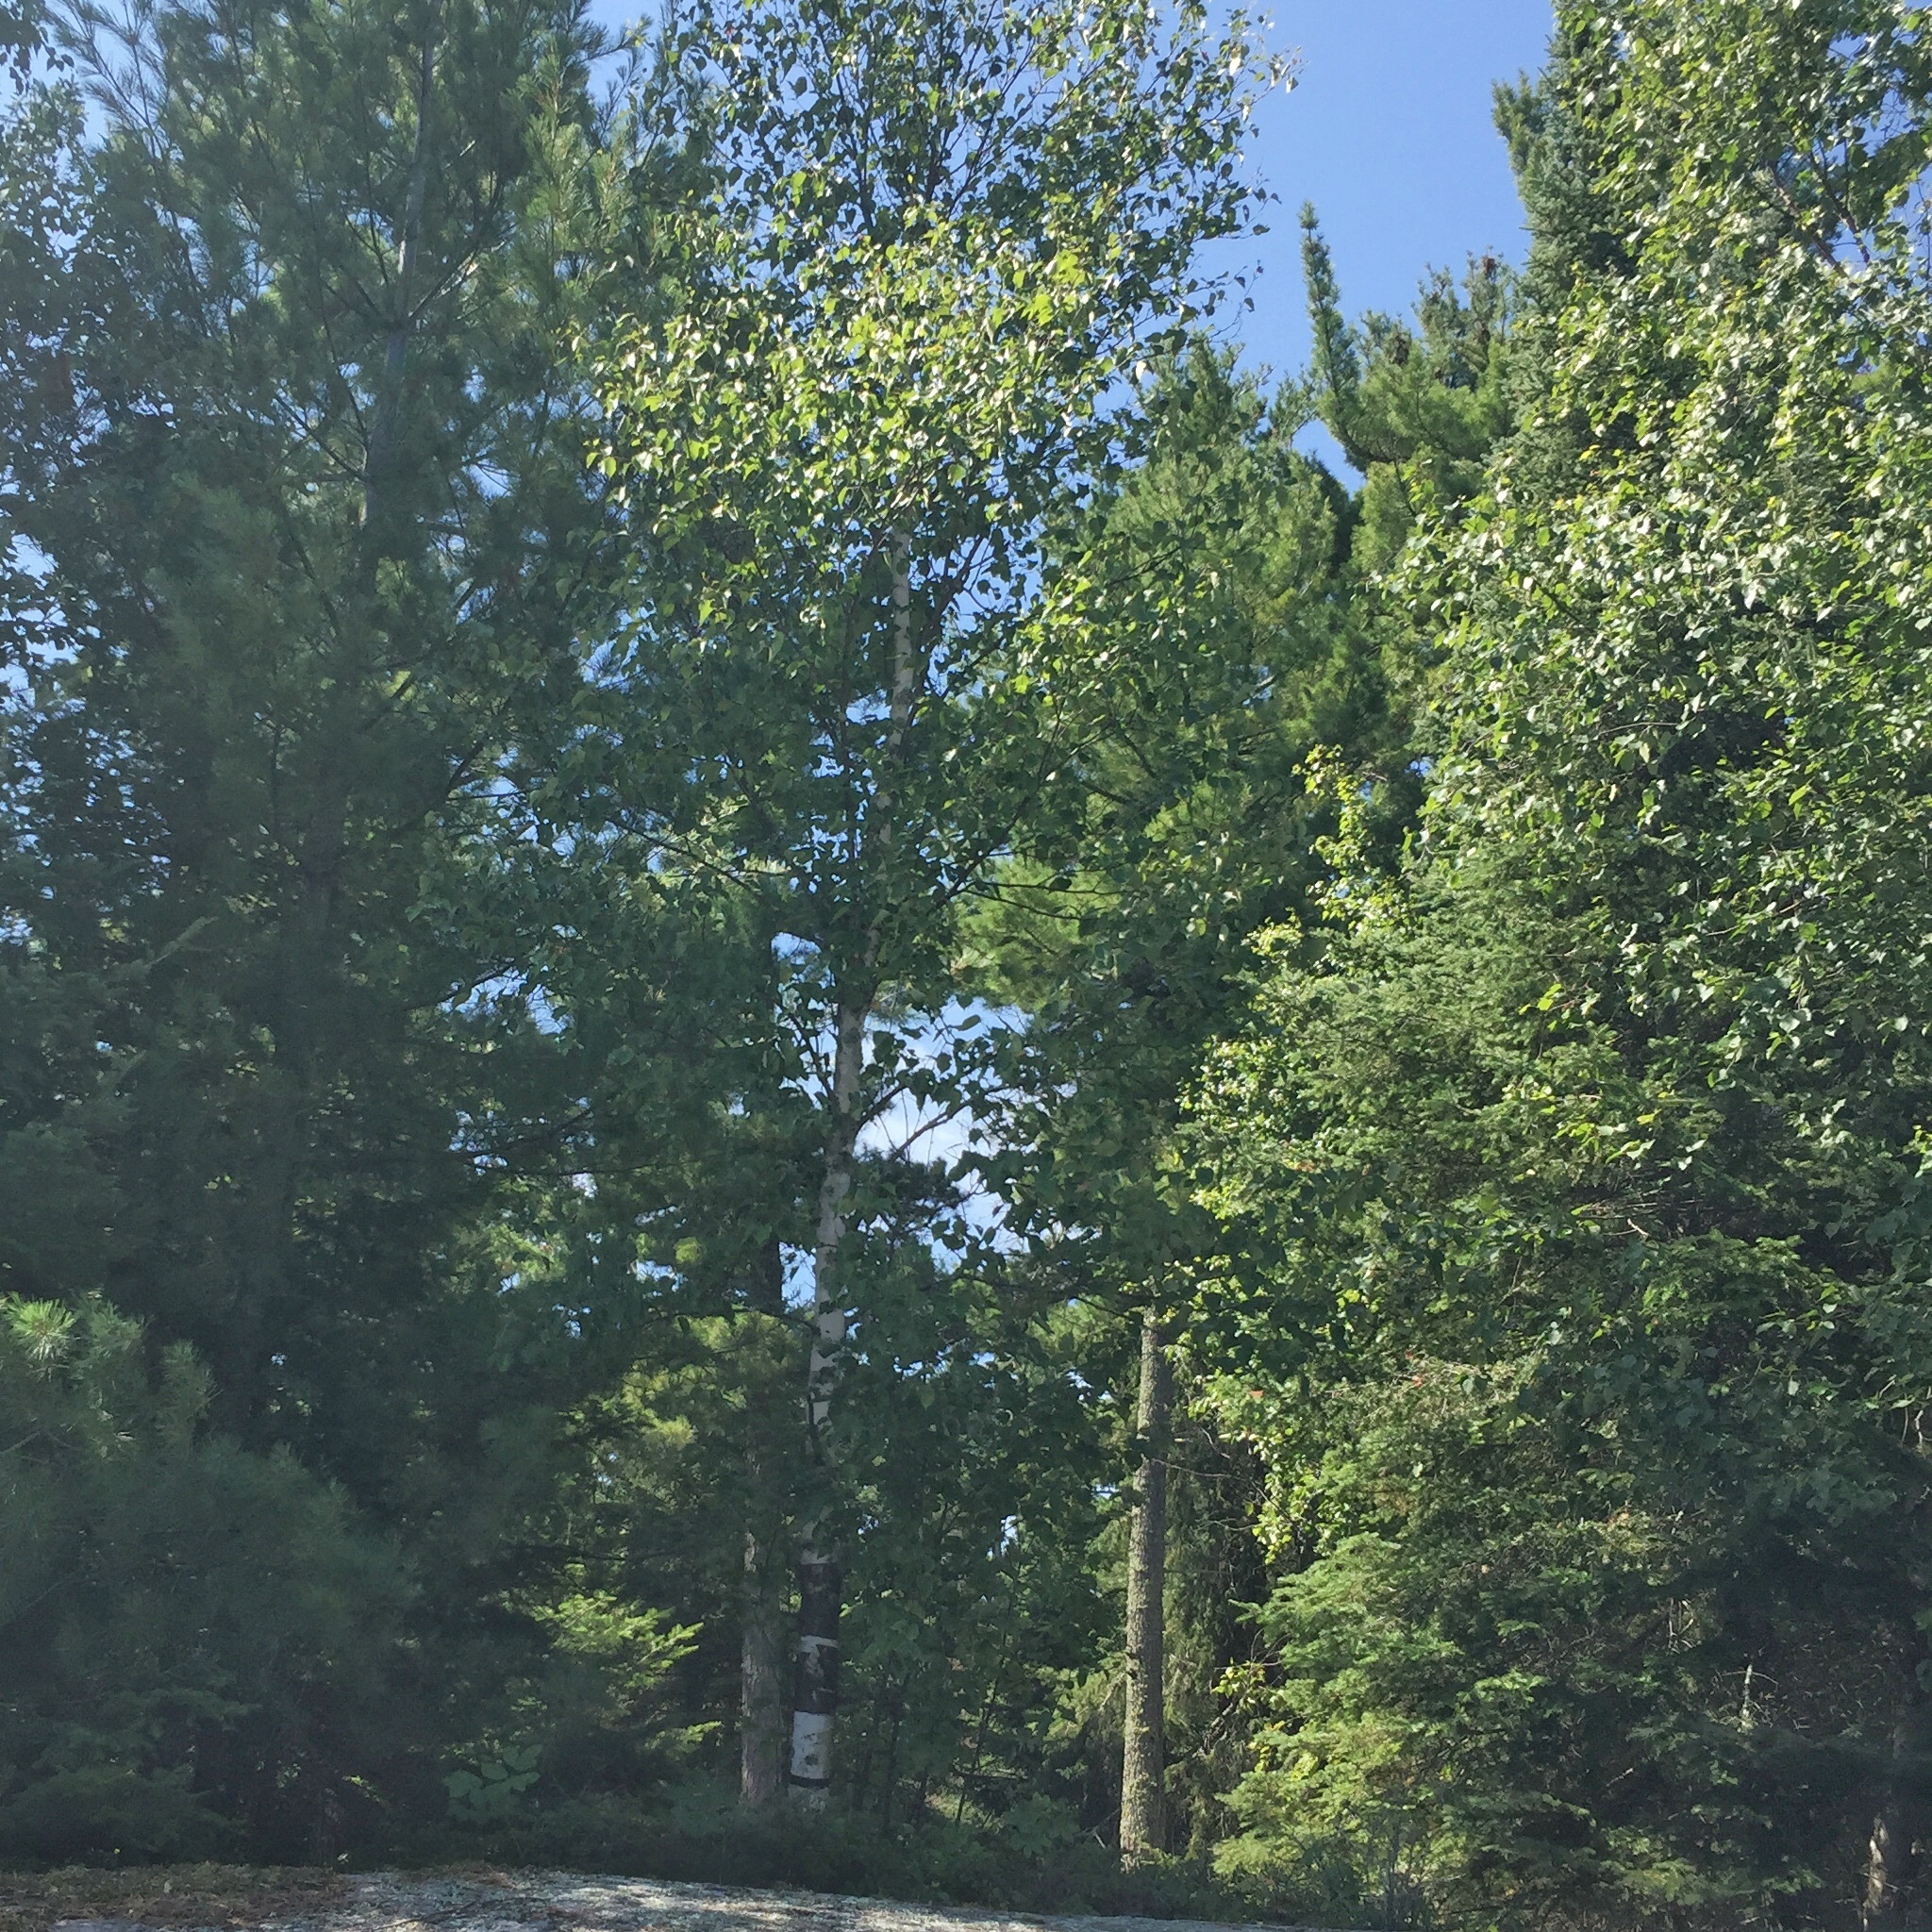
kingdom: Plantae
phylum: Tracheophyta
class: Magnoliopsida
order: Fagales
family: Betulaceae
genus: Betula
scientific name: Betula papyrifera
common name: Paper birch
